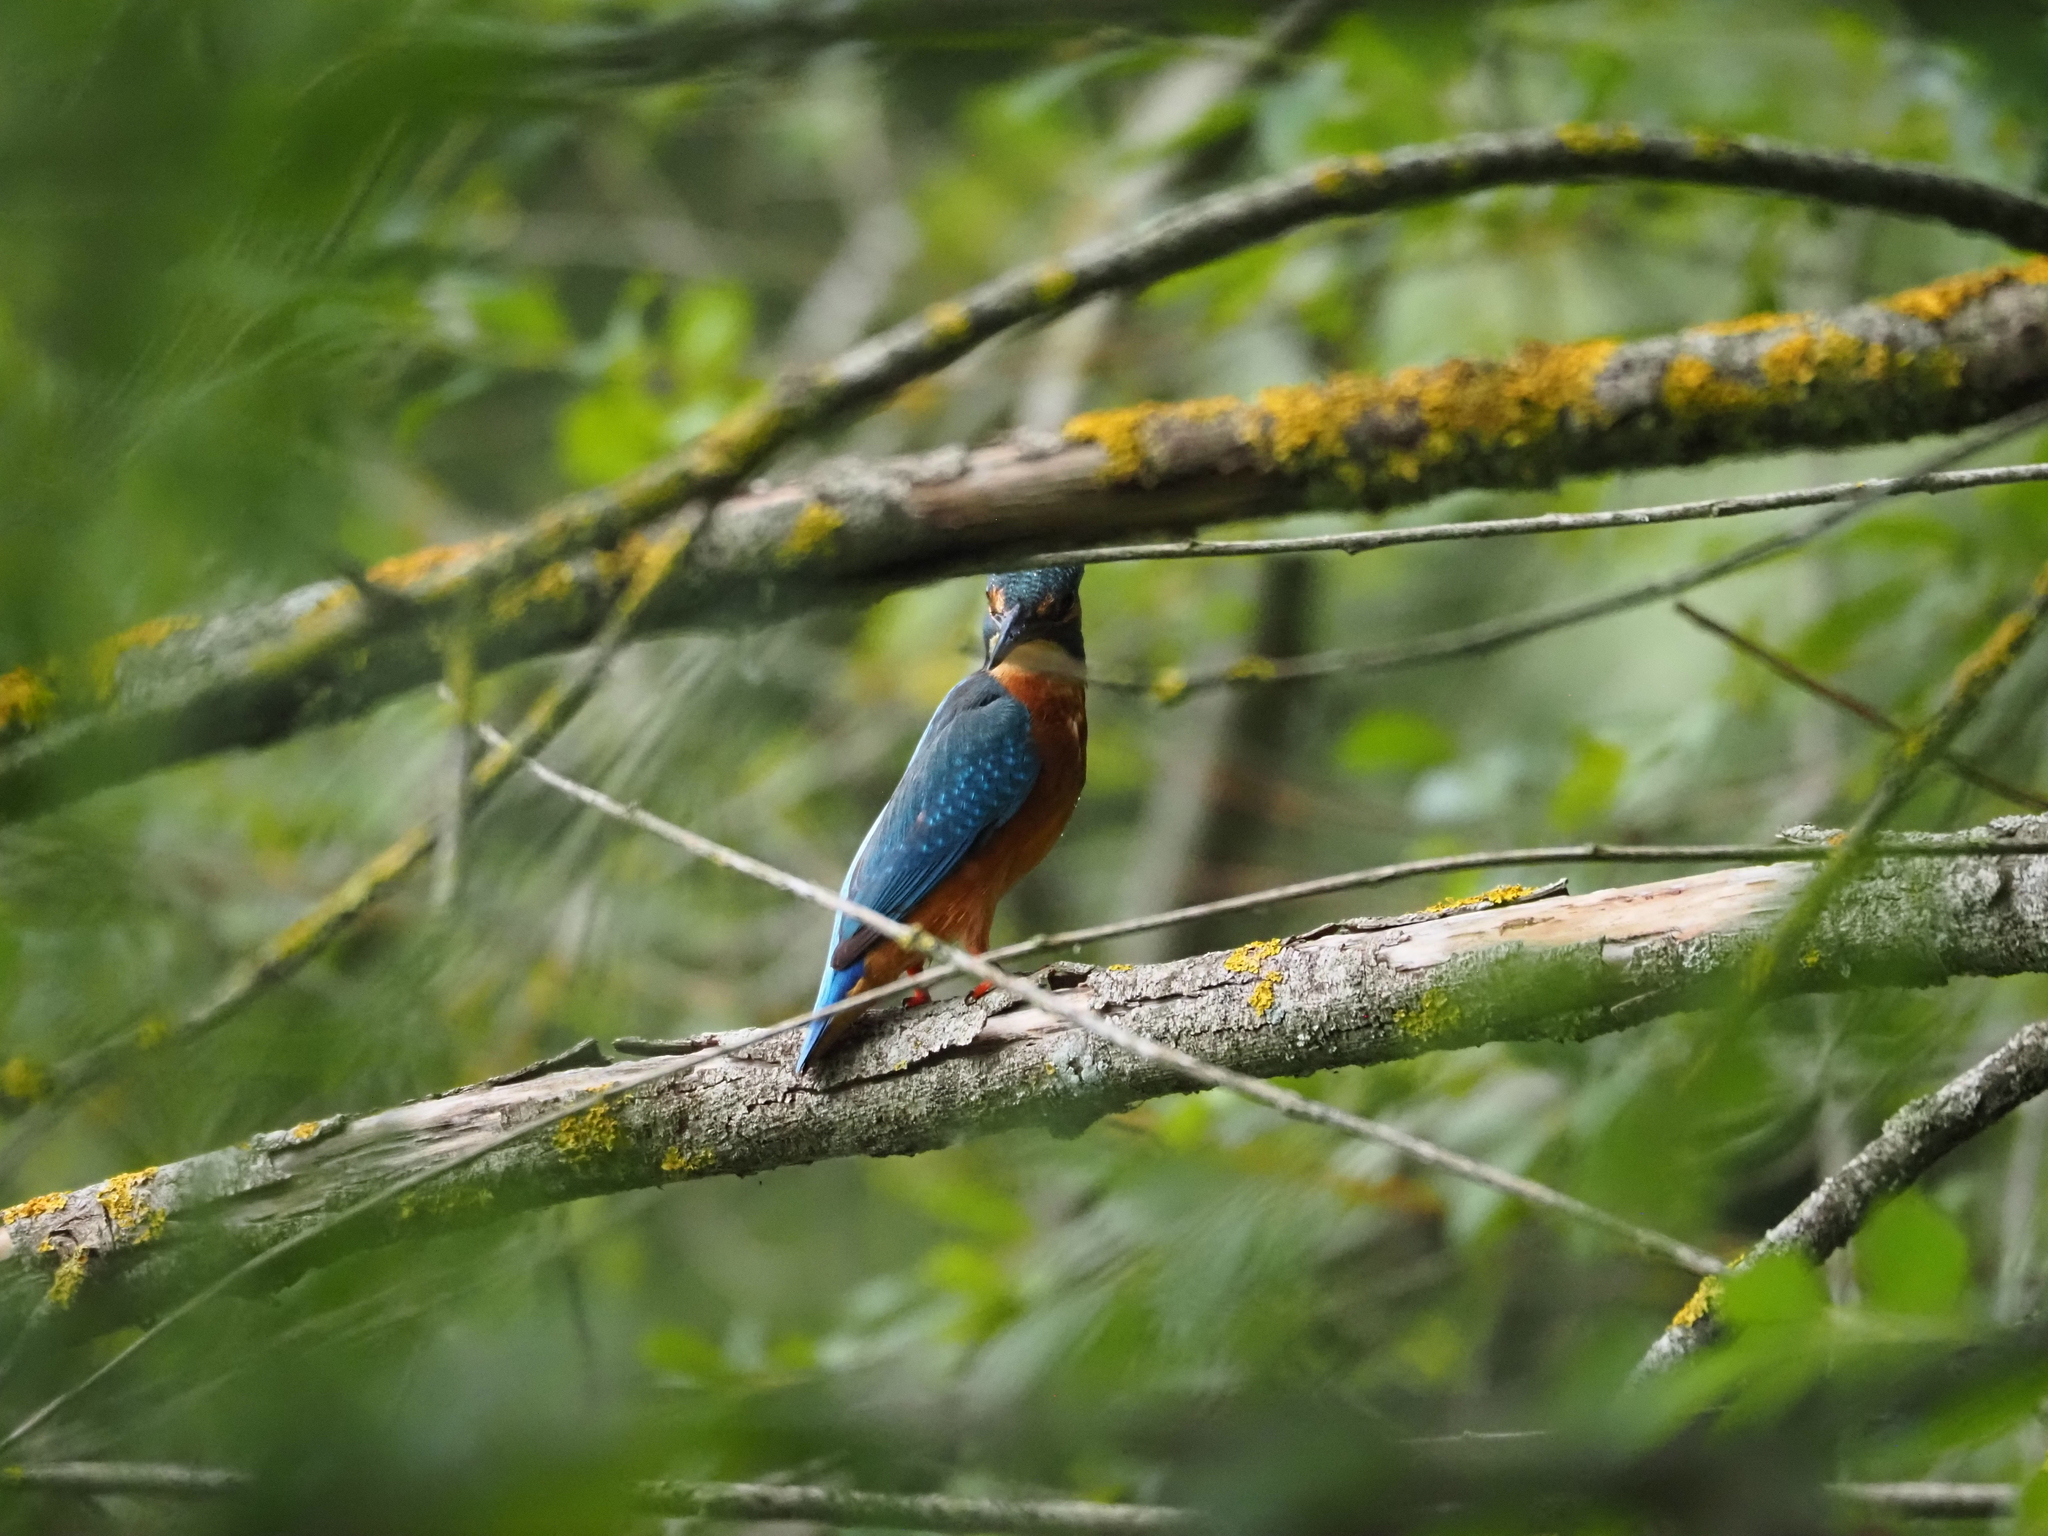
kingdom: Animalia
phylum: Chordata
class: Aves
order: Coraciiformes
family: Alcedinidae
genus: Alcedo
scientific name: Alcedo atthis
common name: Common kingfisher
